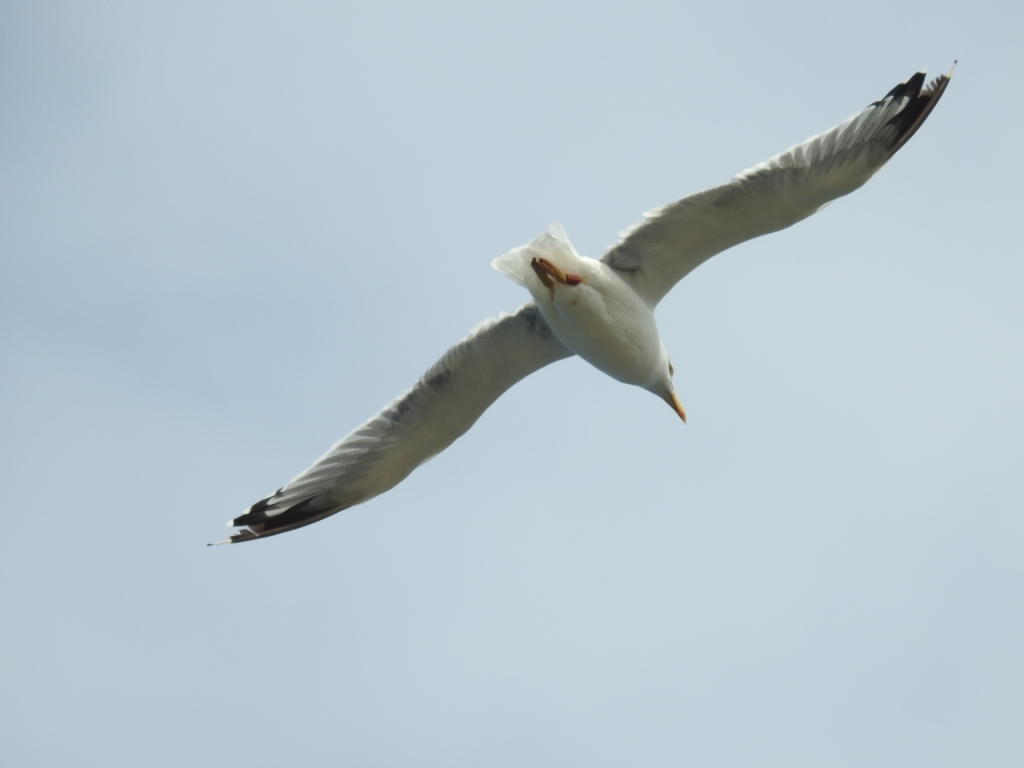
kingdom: Animalia
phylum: Chordata
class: Aves
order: Charadriiformes
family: Laridae
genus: Larus
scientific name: Larus michahellis
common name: Yellow-legged gull
